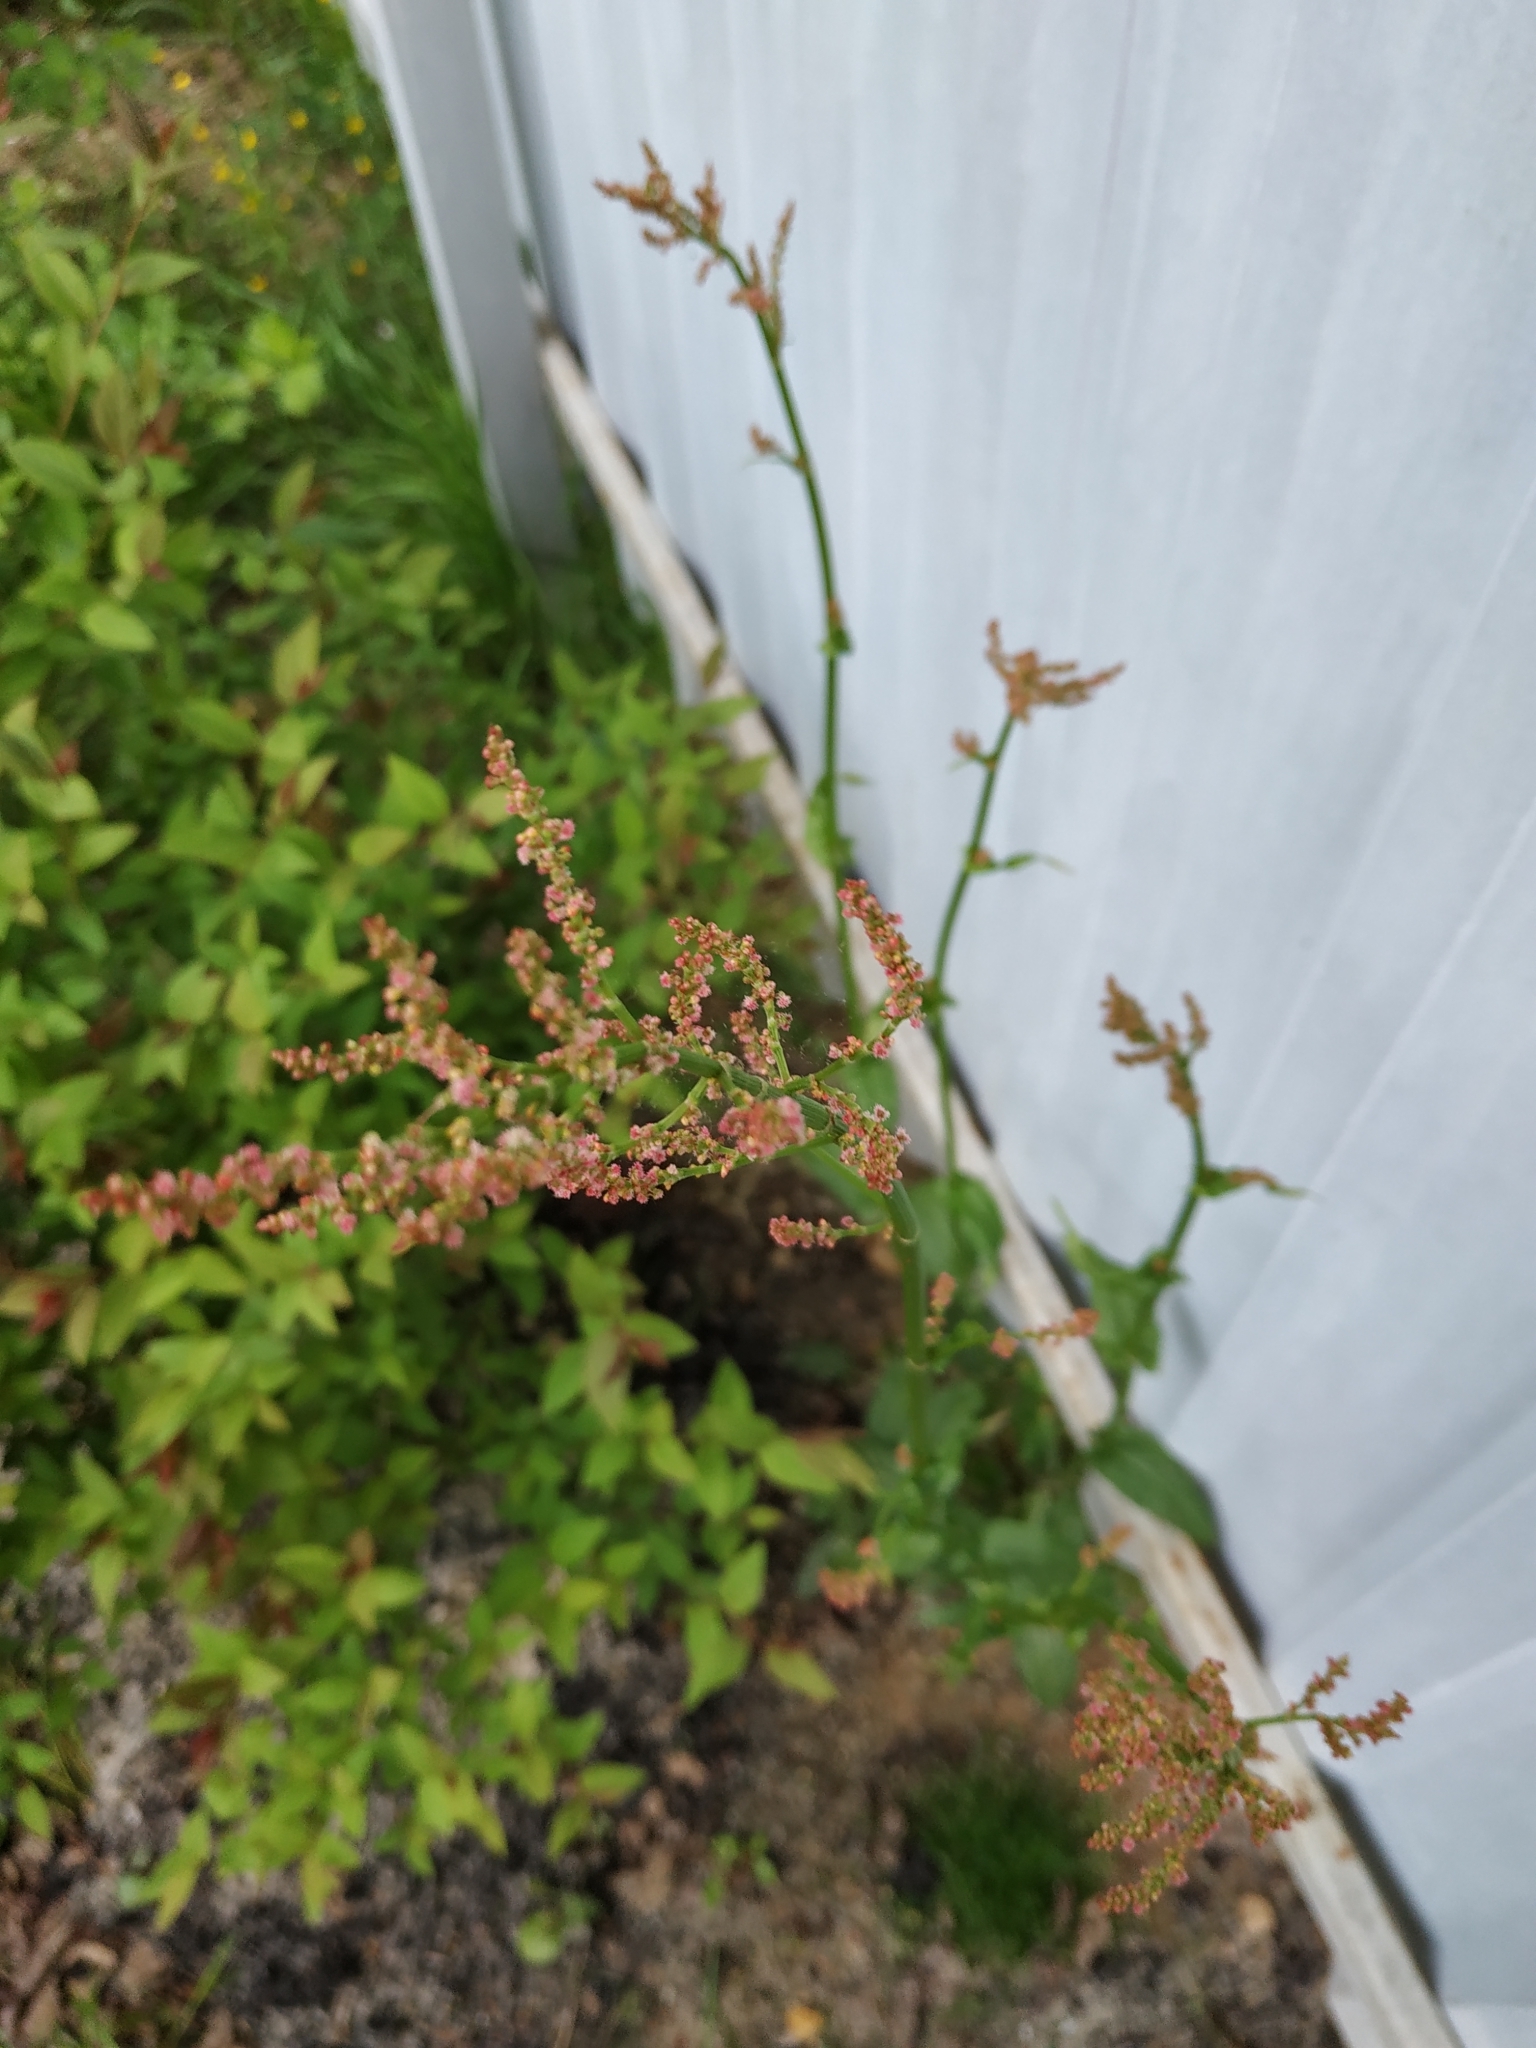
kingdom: Plantae
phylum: Tracheophyta
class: Magnoliopsida
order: Caryophyllales
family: Polygonaceae
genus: Rumex
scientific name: Rumex acetosa
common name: Garden sorrel
